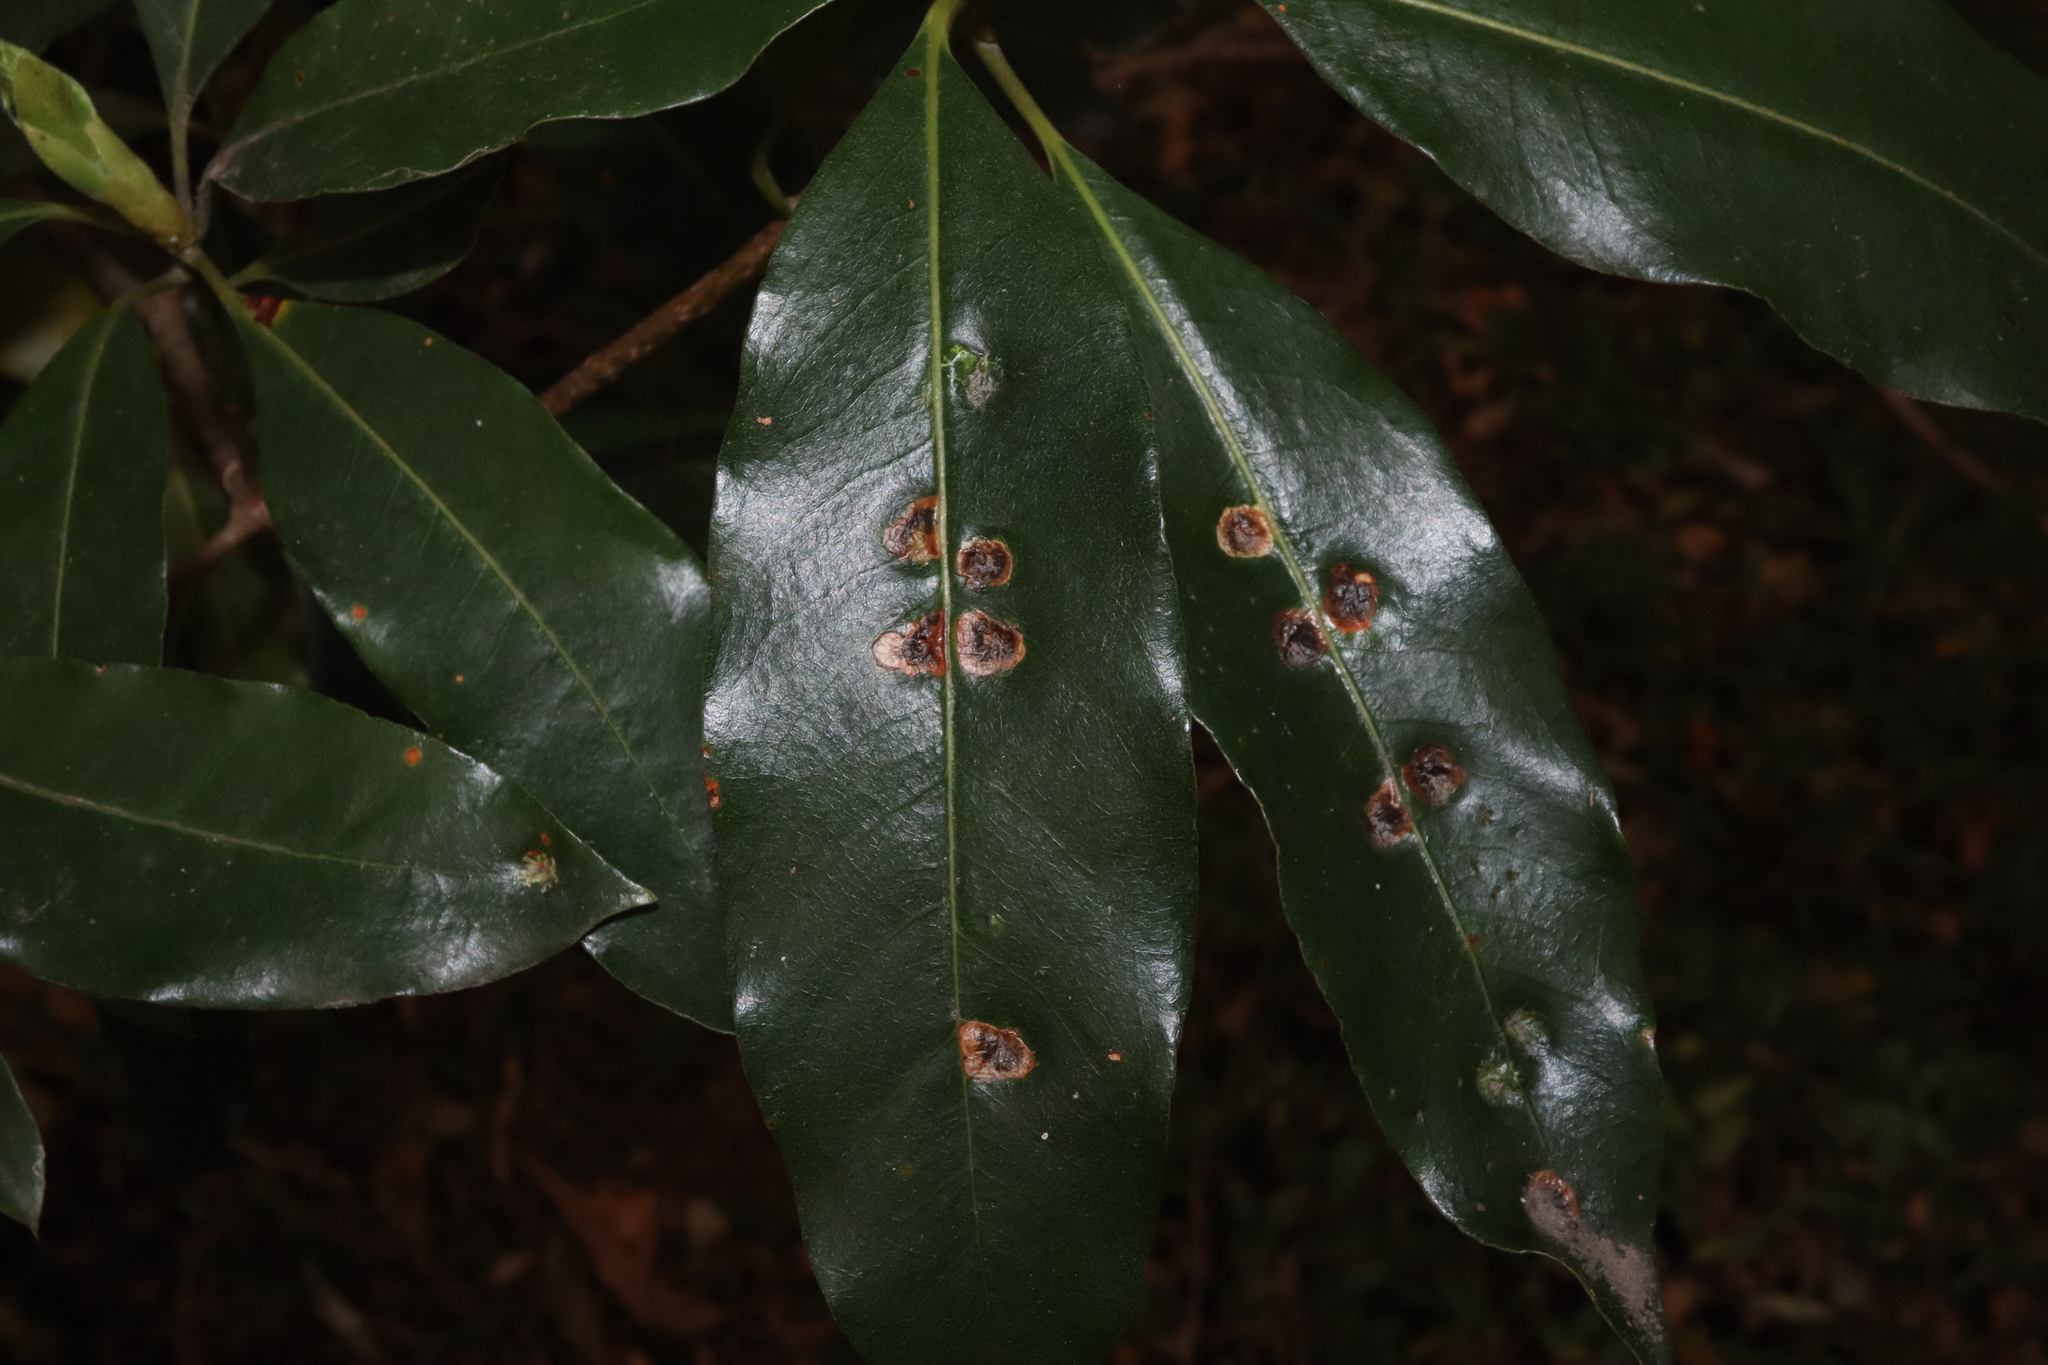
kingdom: Animalia
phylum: Arthropoda
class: Insecta
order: Diptera
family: Agromyzidae
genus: Phytoliriomyza
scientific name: Phytoliriomyza pittosporophylli
